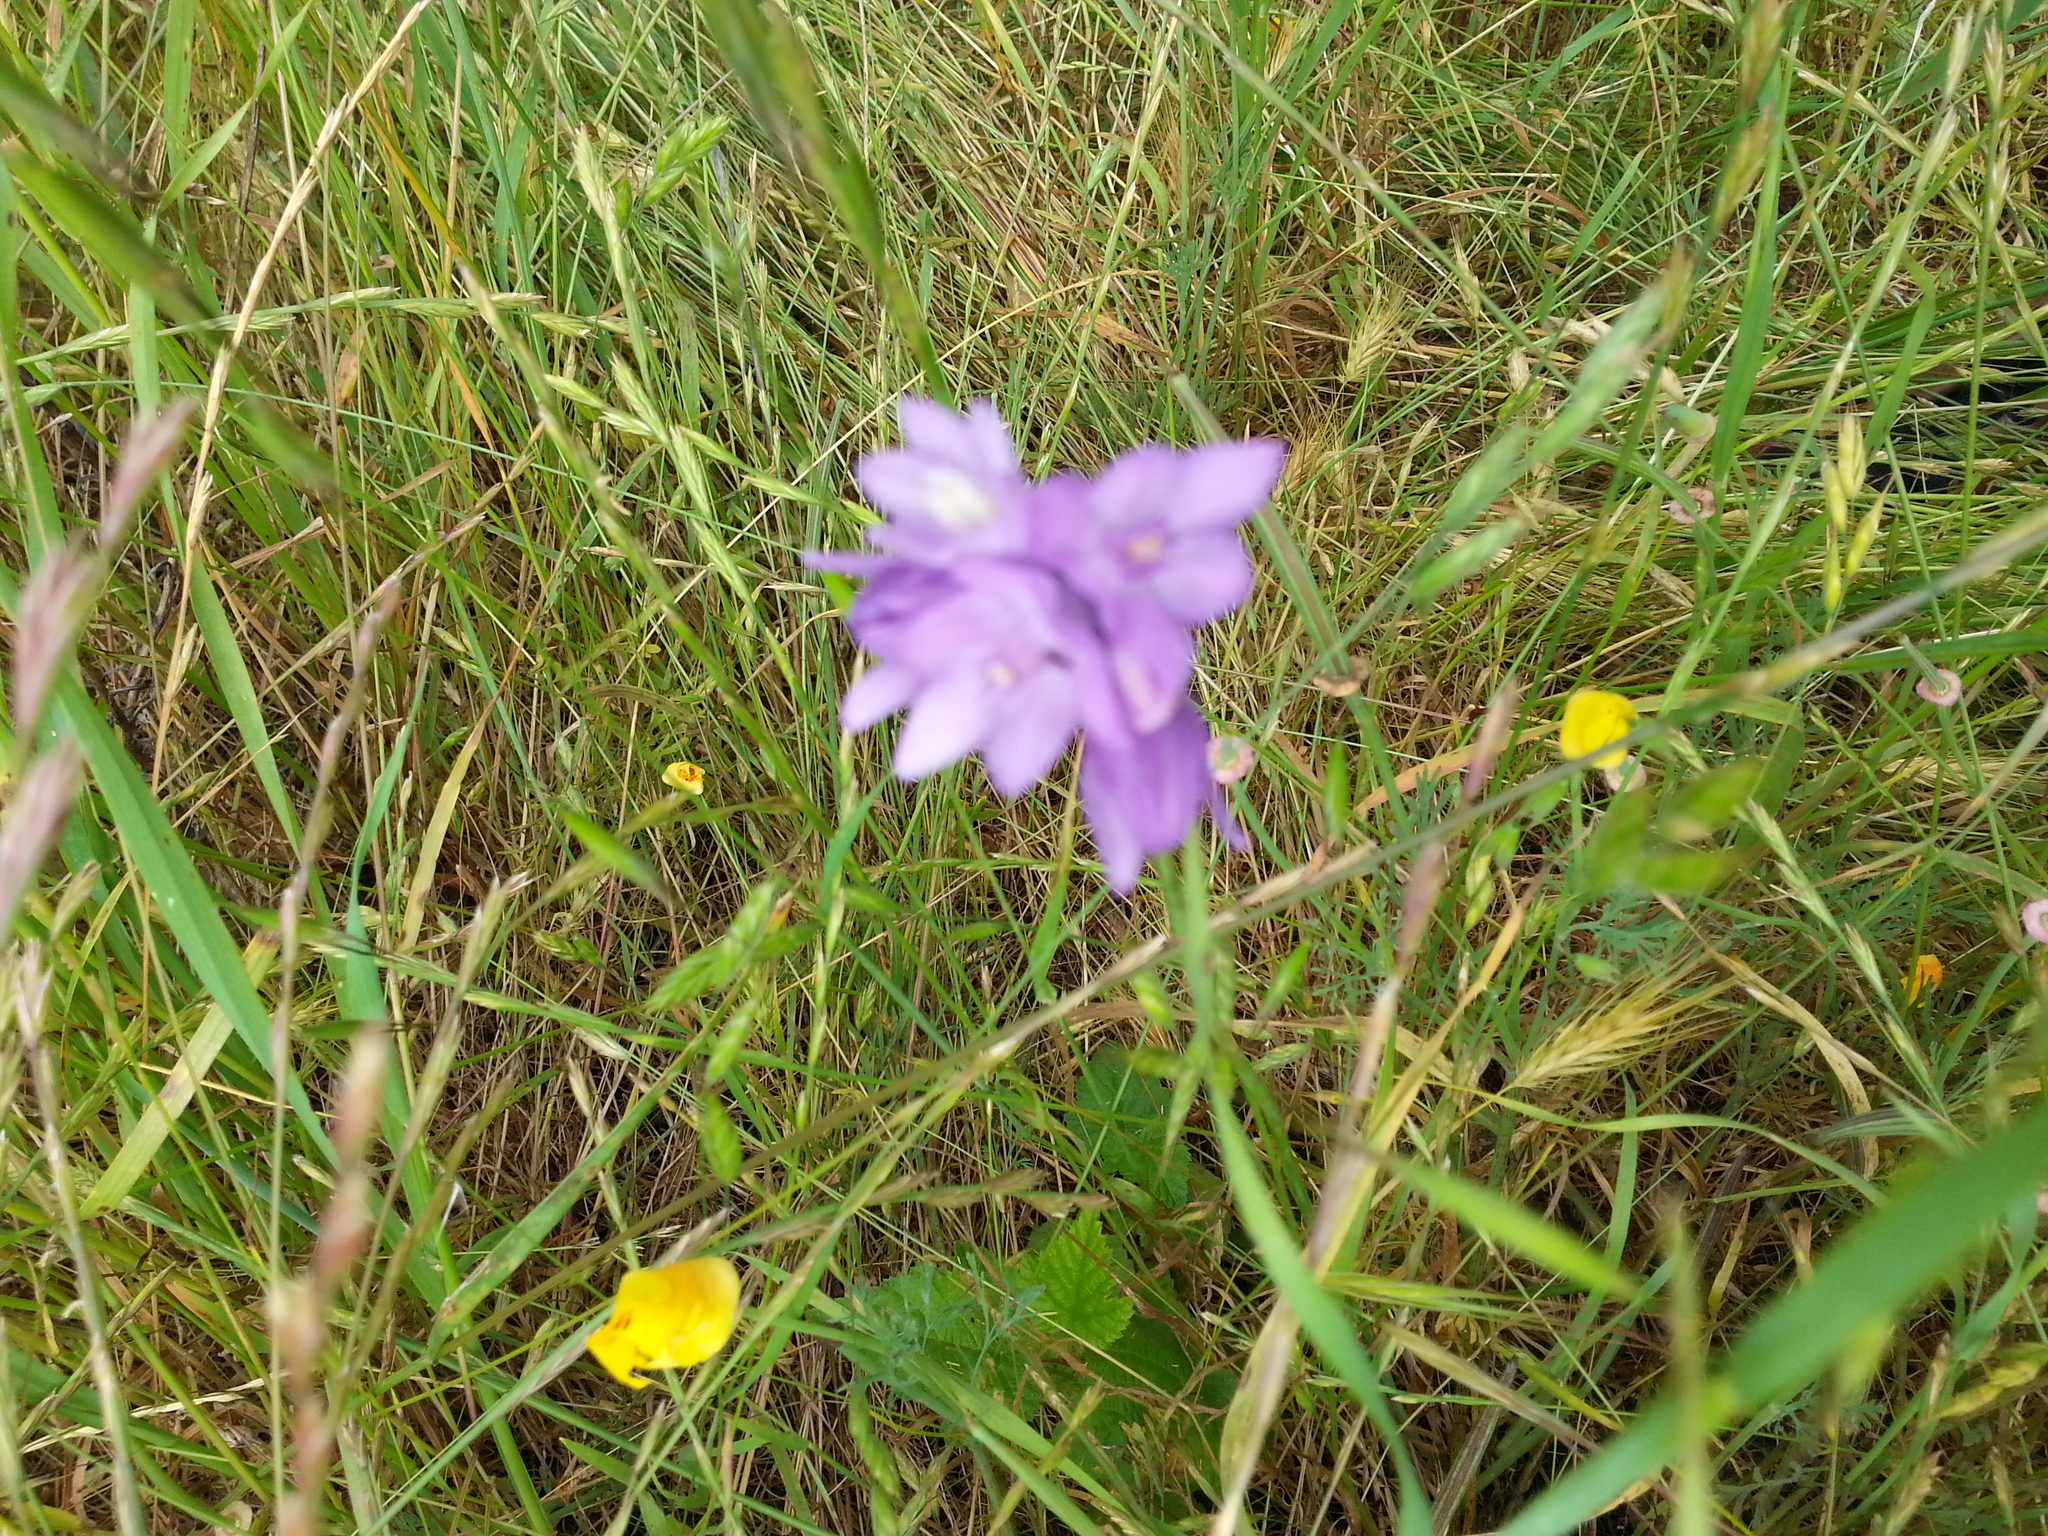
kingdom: Plantae
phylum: Tracheophyta
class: Liliopsida
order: Asparagales
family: Asparagaceae
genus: Dipterostemon
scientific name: Dipterostemon capitatus
